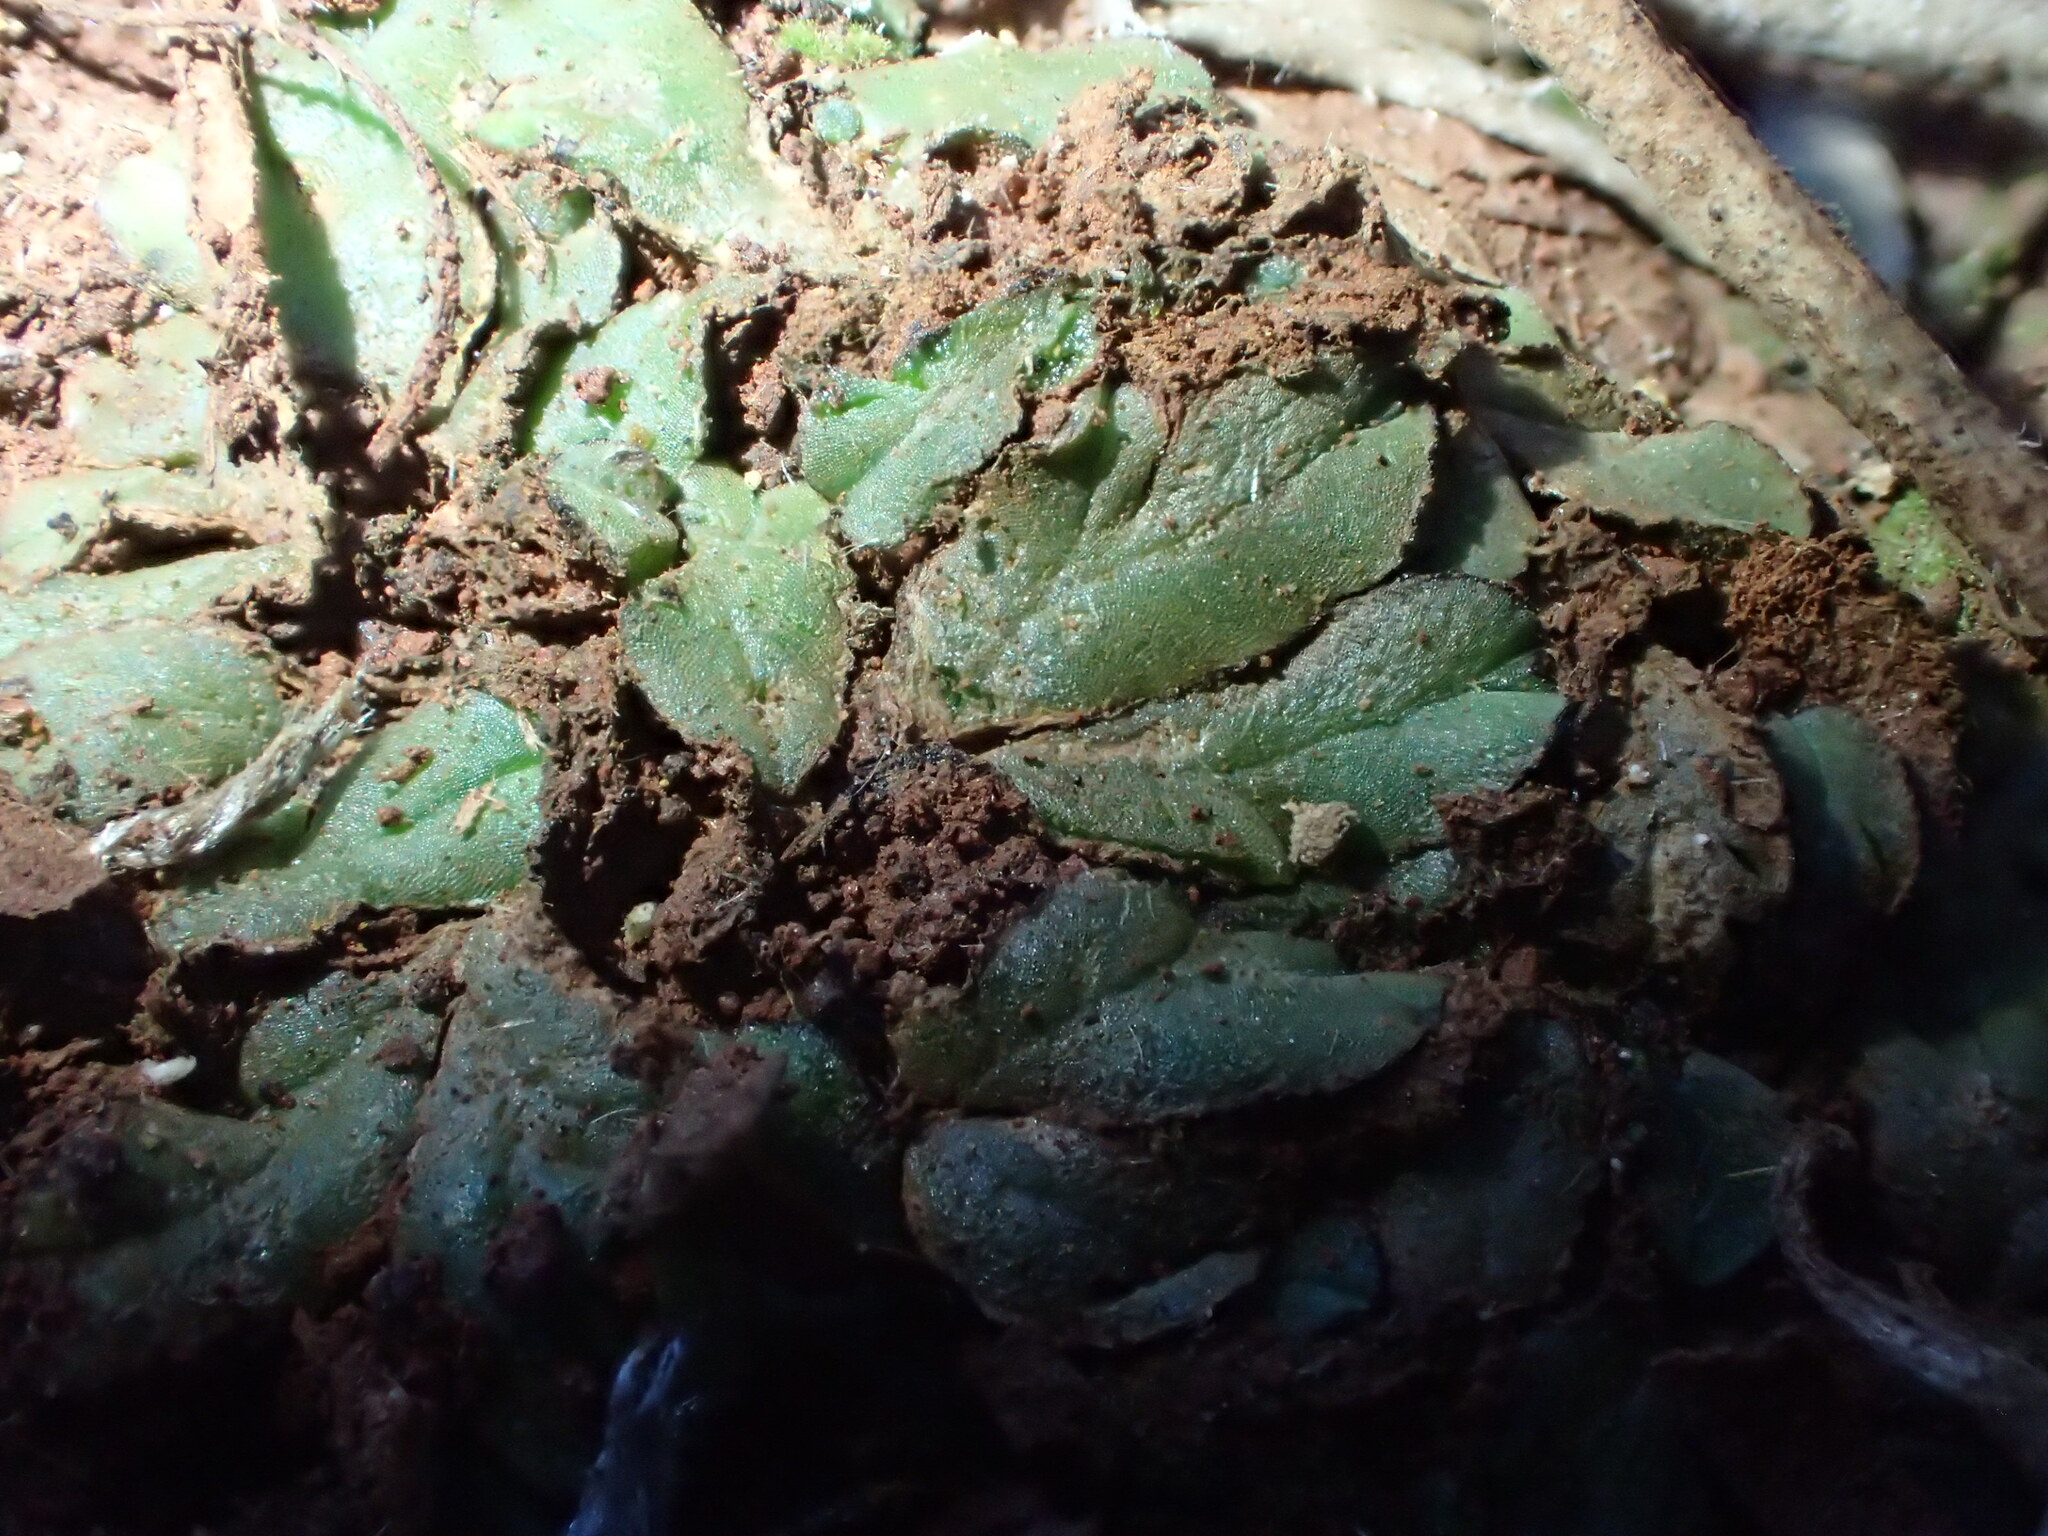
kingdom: Plantae
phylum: Marchantiophyta
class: Marchantiopsida
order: Marchantiales
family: Ricciaceae
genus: Riccia
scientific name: Riccia inflexa
